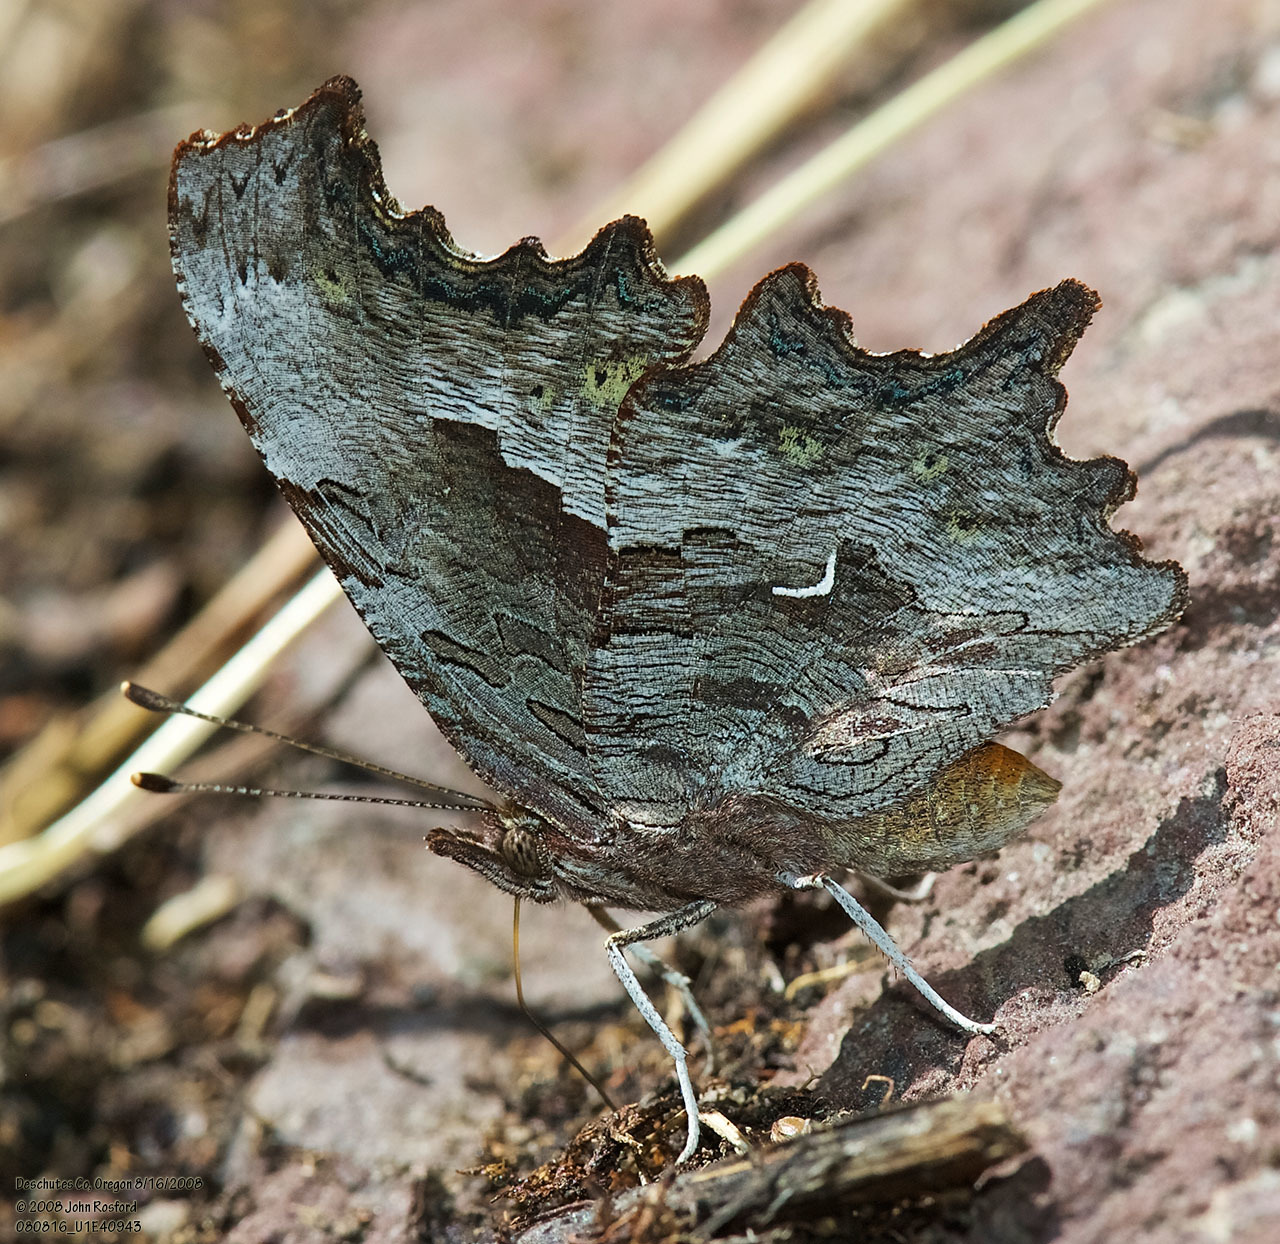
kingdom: Animalia
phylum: Arthropoda
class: Insecta
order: Lepidoptera
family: Nymphalidae
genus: Polygonia
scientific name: Polygonia gracilis
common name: Hoary comma
